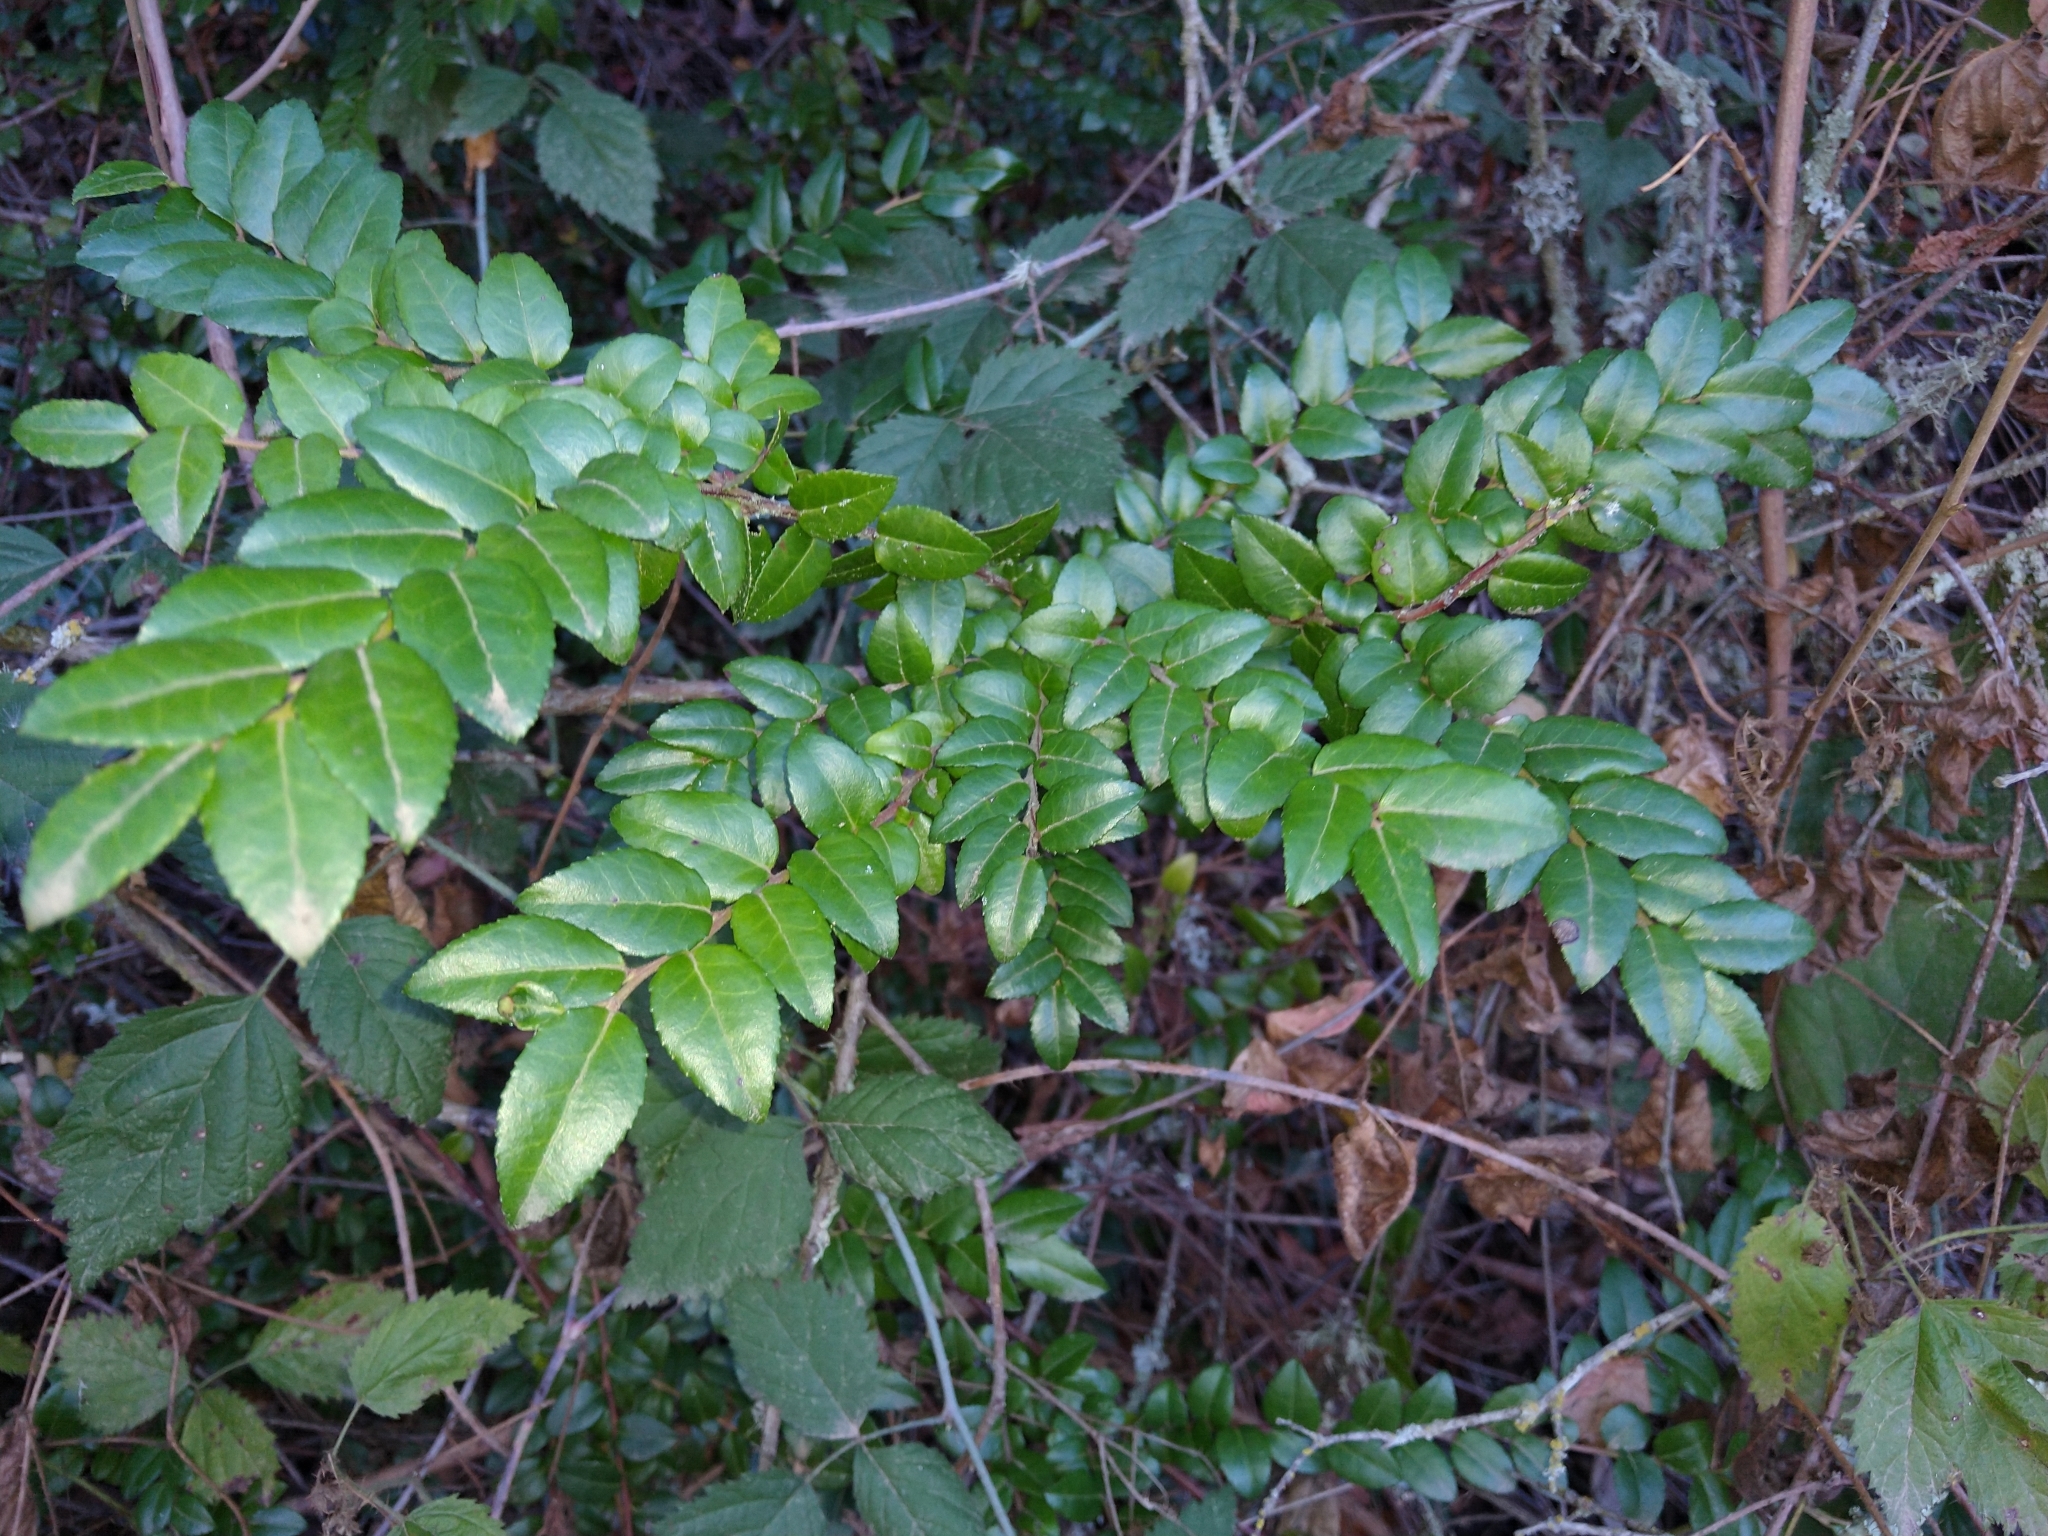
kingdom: Plantae
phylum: Tracheophyta
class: Magnoliopsida
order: Ericales
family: Ericaceae
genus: Vaccinium
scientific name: Vaccinium ovatum
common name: California-huckleberry
